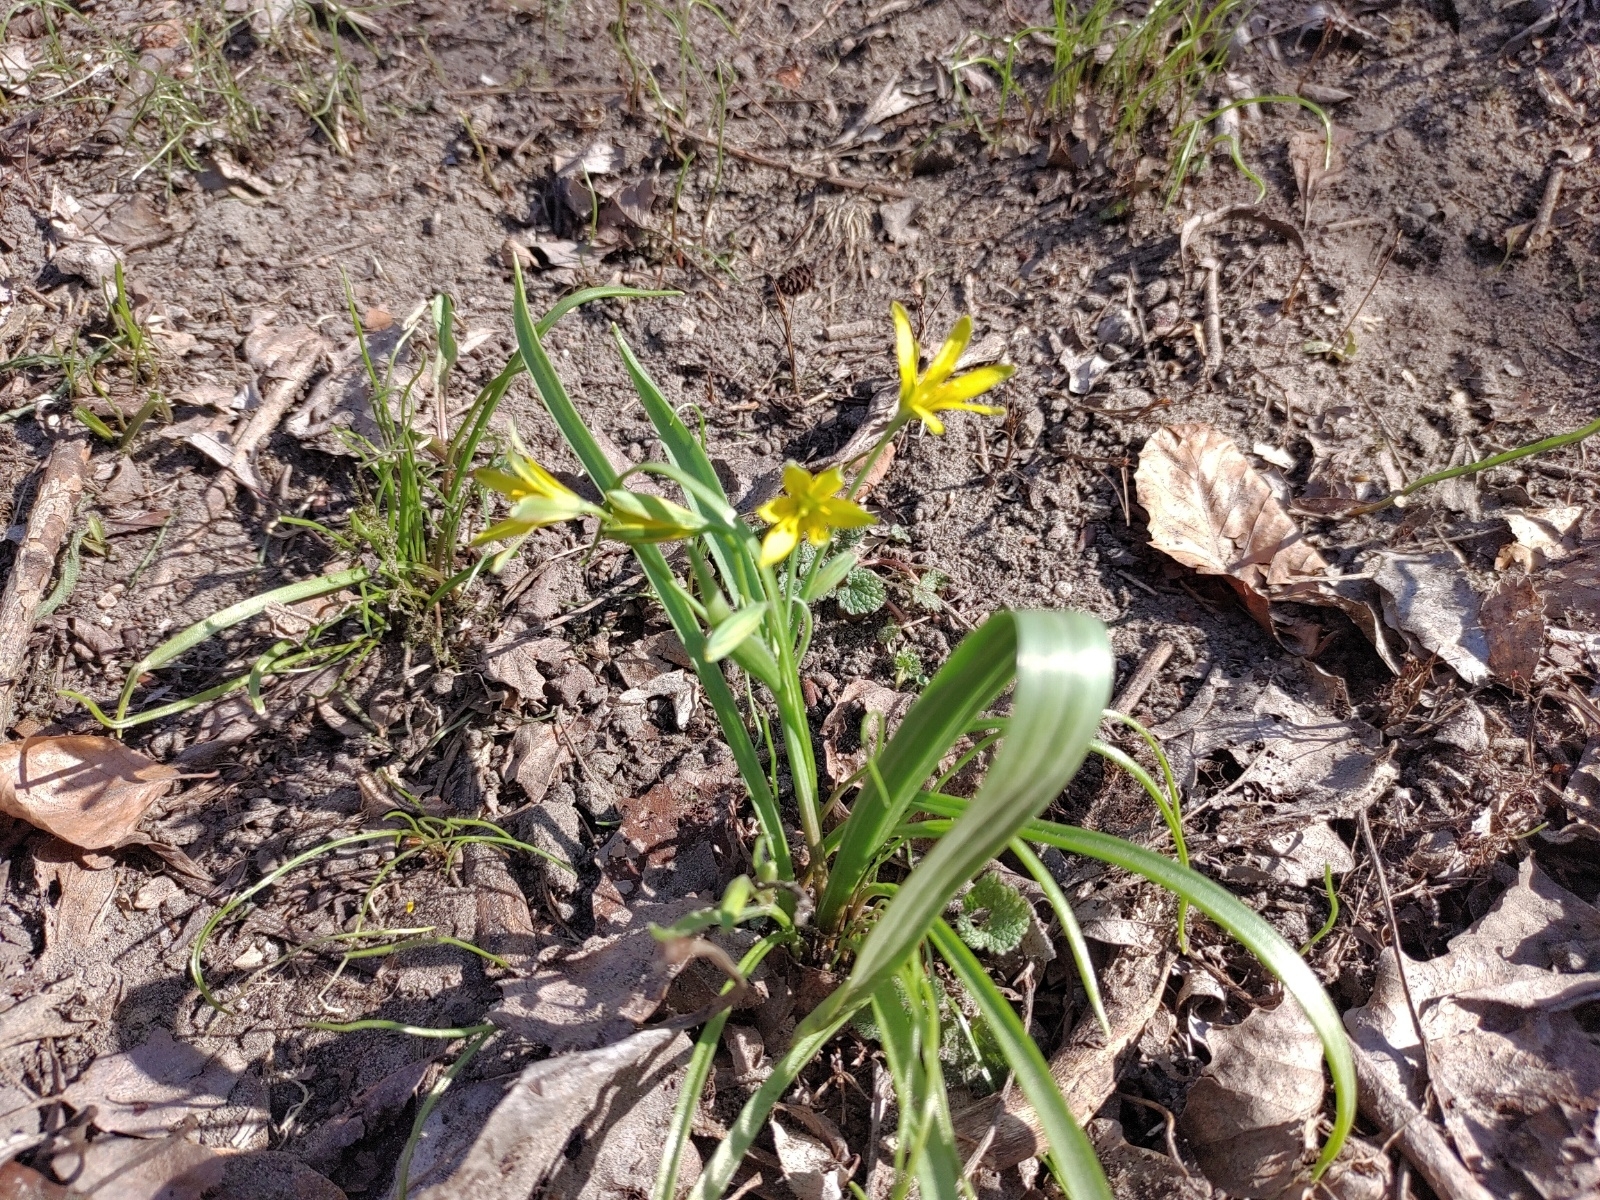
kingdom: Plantae
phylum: Tracheophyta
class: Liliopsida
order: Liliales
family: Liliaceae
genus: Gagea
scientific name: Gagea lutea
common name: Yellow star-of-bethlehem
